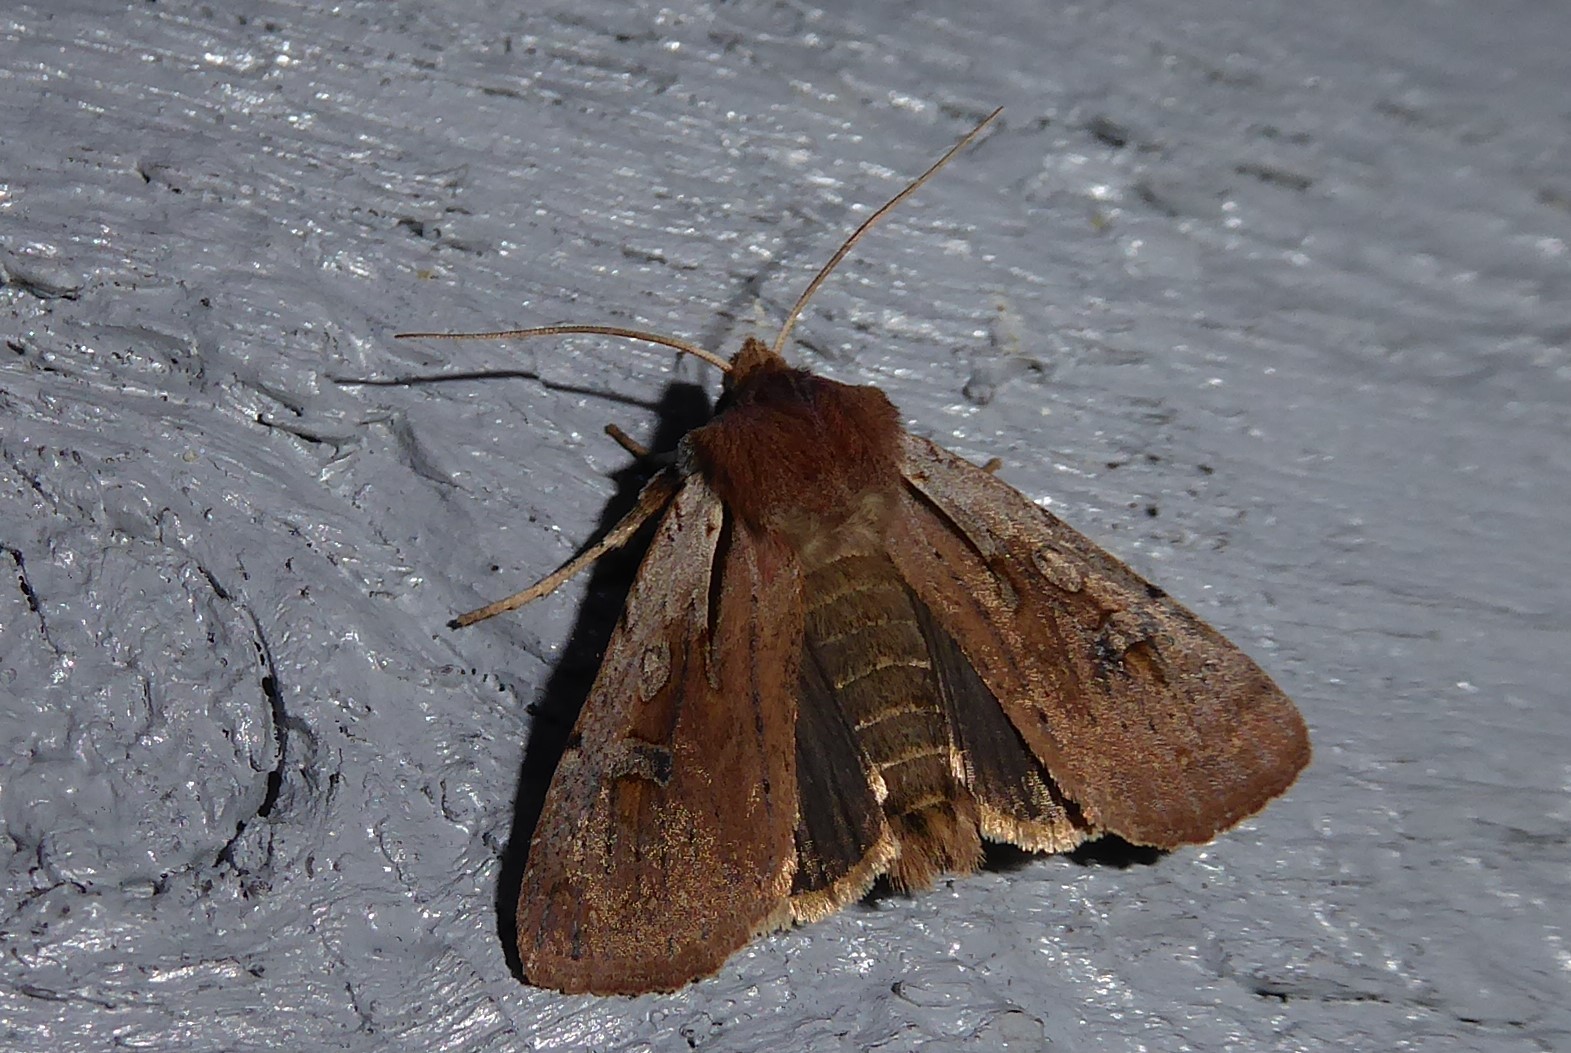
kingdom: Animalia
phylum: Arthropoda
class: Insecta
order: Lepidoptera
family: Noctuidae
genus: Ichneutica
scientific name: Ichneutica atristriga
